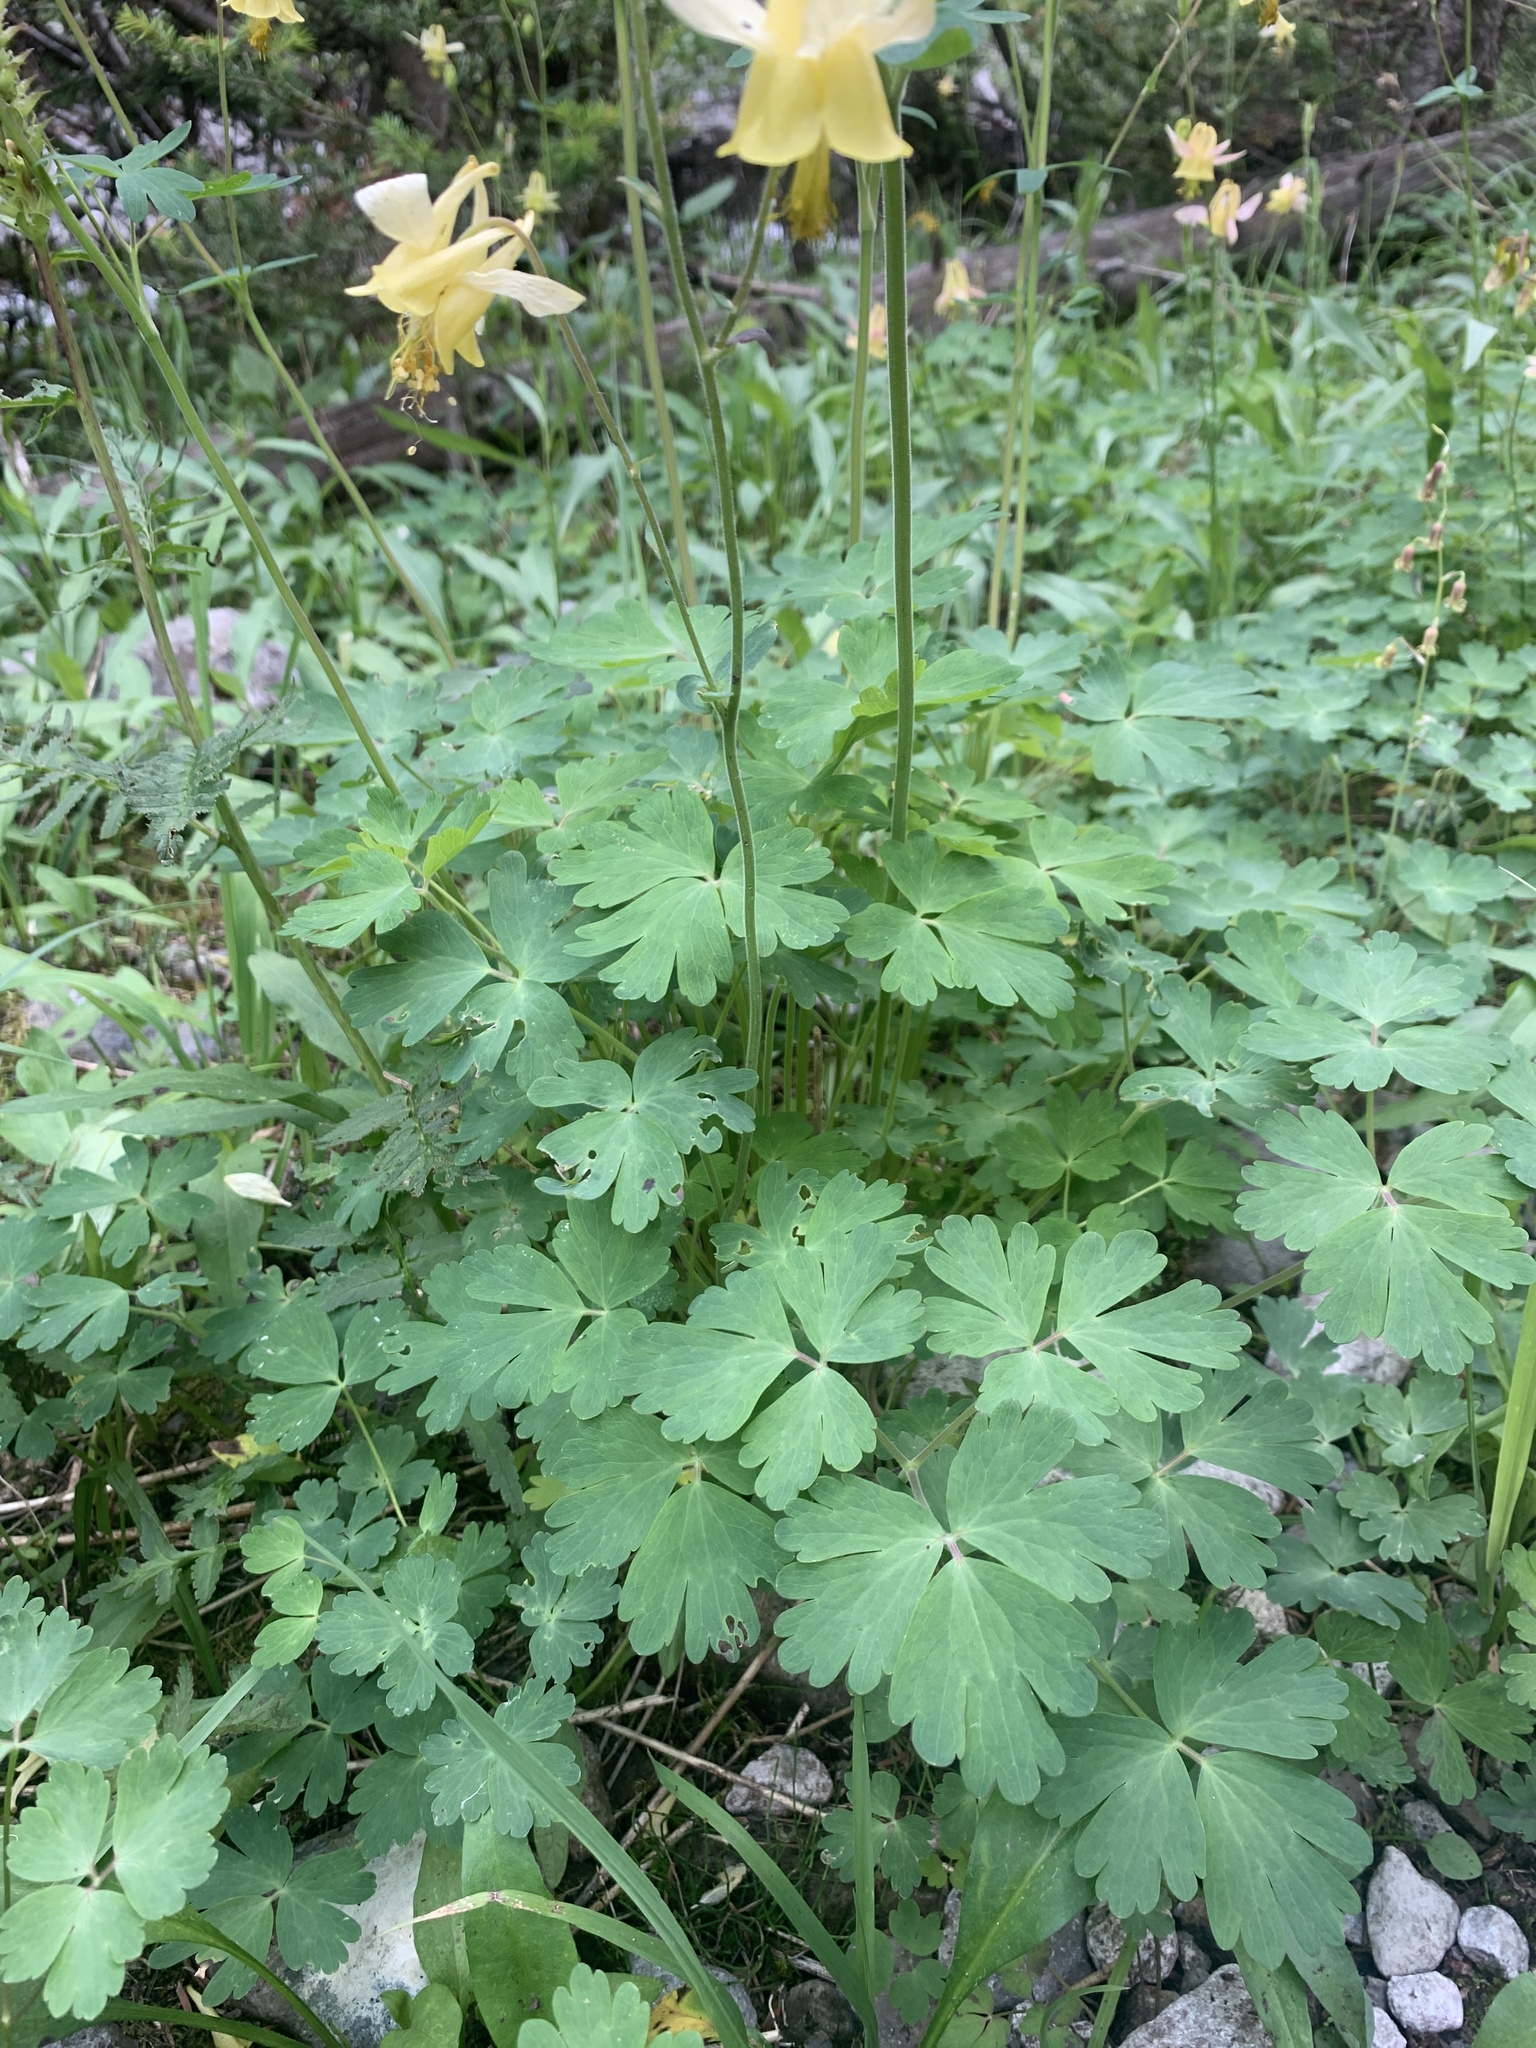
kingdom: Plantae
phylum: Tracheophyta
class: Magnoliopsida
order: Ranunculales
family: Ranunculaceae
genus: Aquilegia
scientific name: Aquilegia flavescens
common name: Yellow columbine
